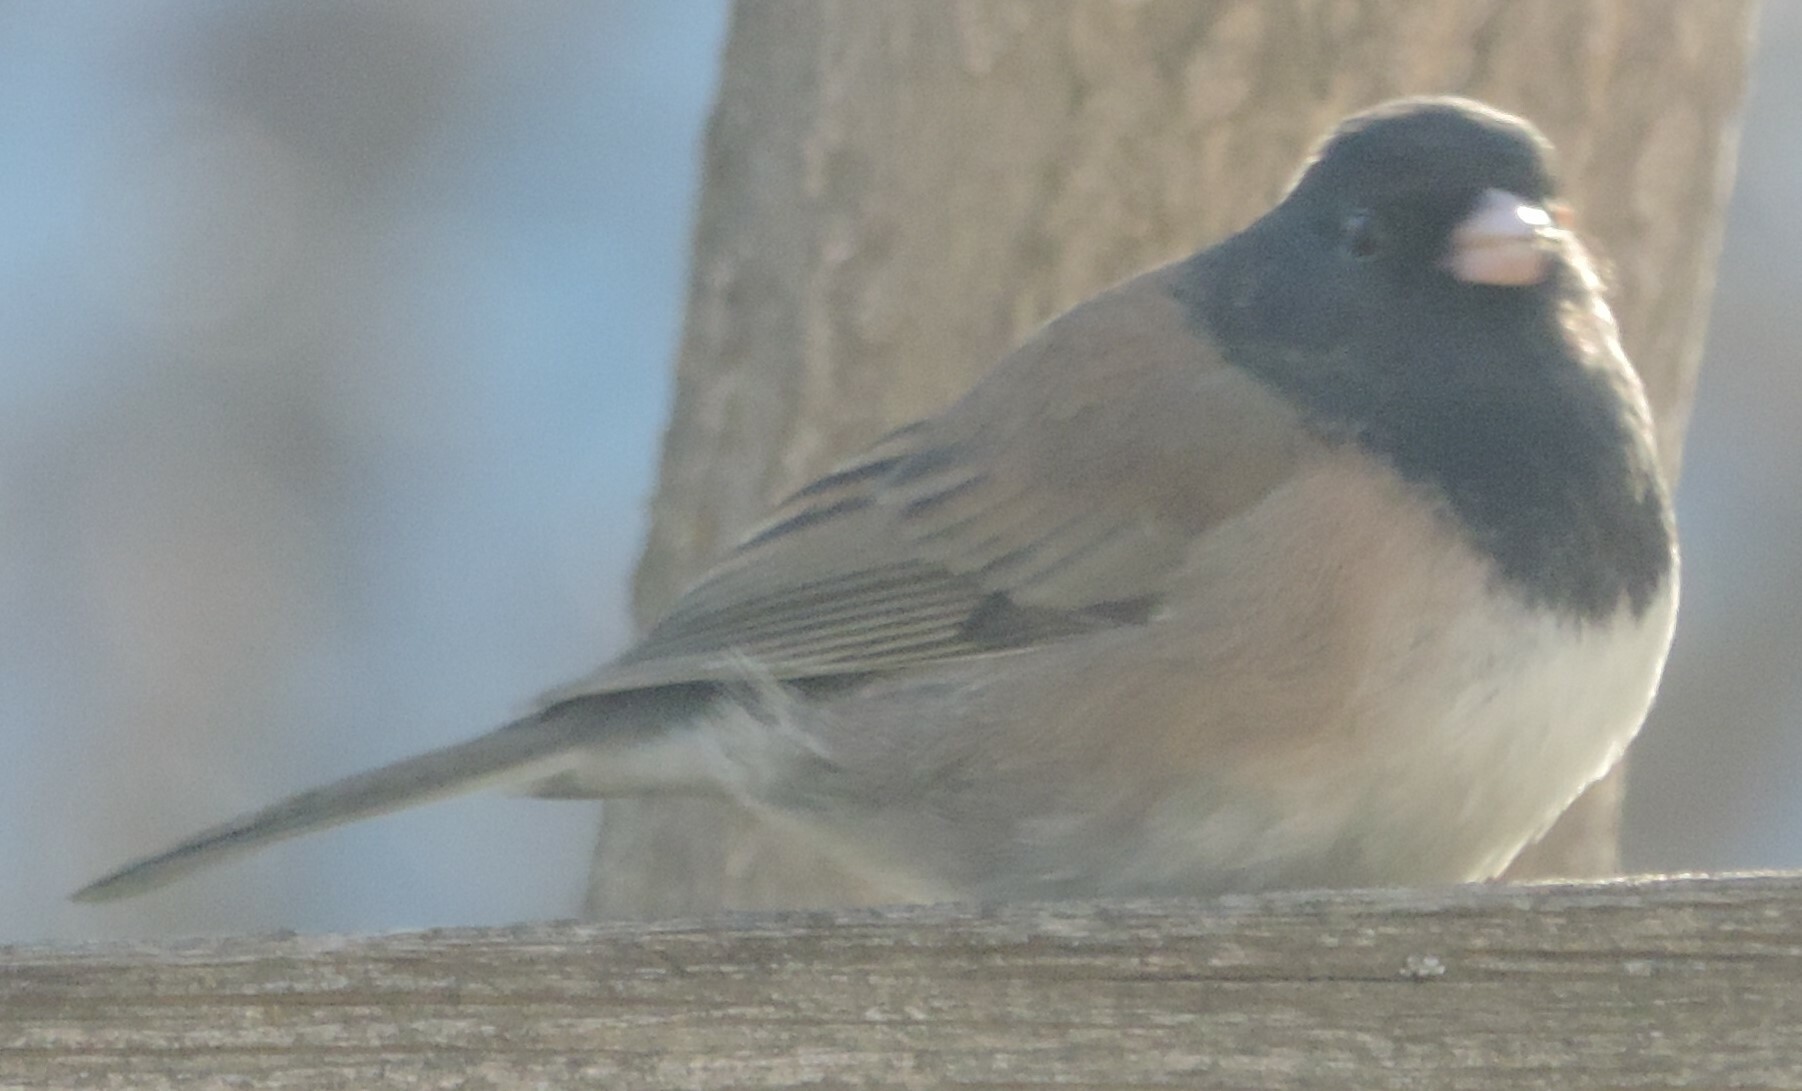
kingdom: Animalia
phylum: Chordata
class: Aves
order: Passeriformes
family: Passerellidae
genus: Junco
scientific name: Junco hyemalis
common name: Dark-eyed junco
